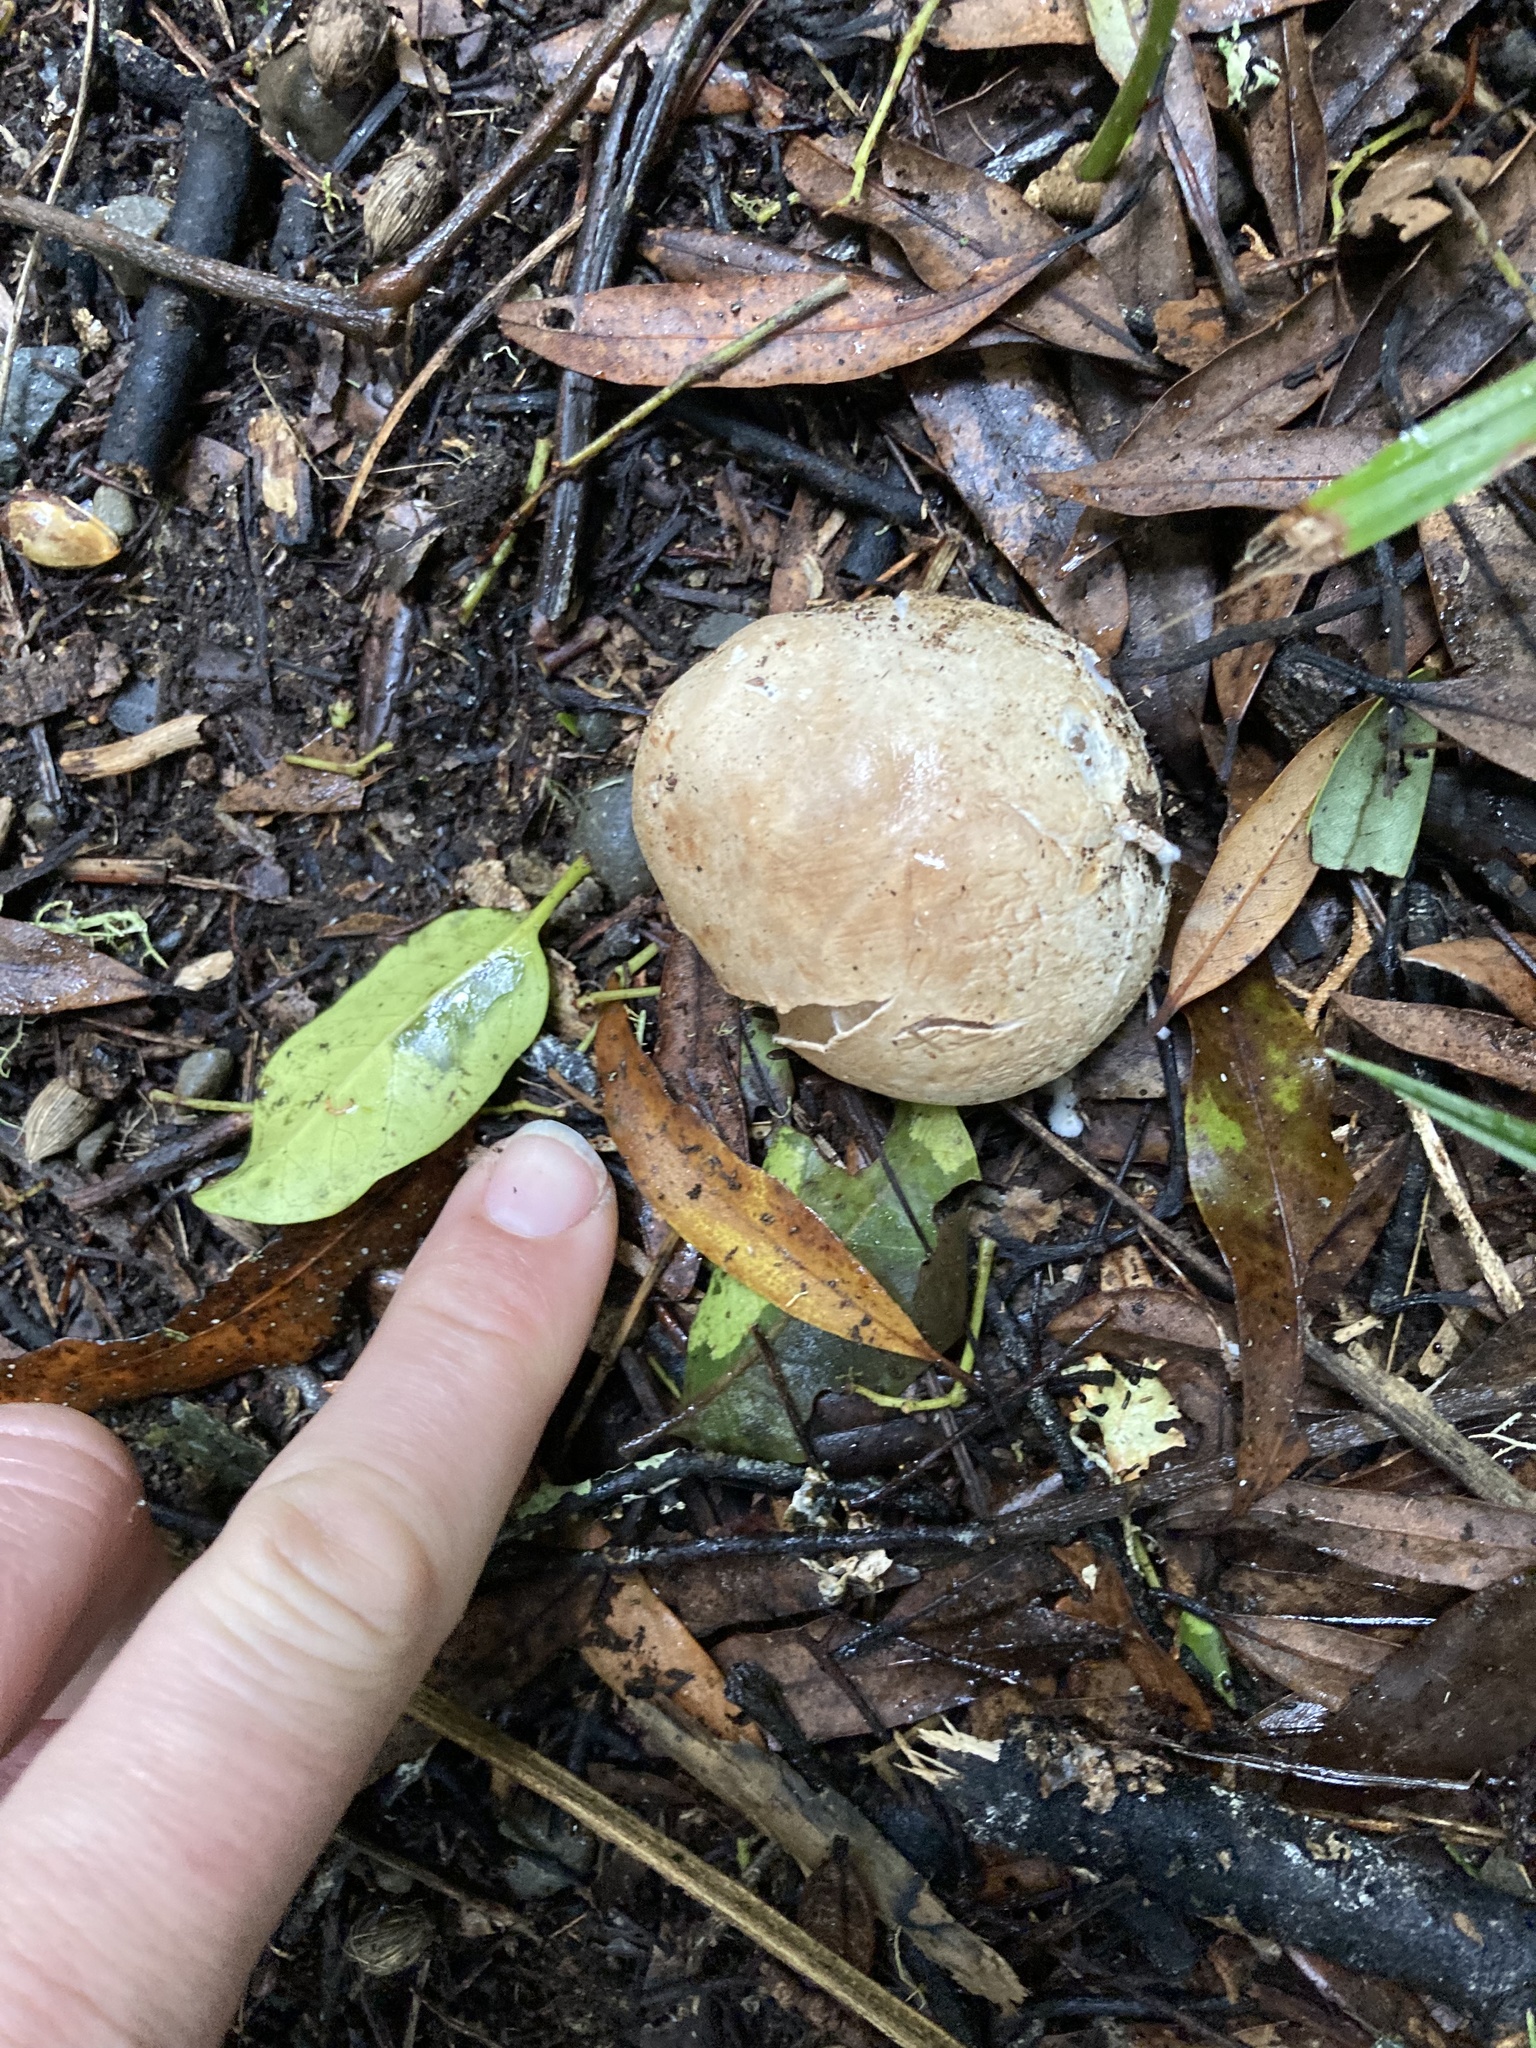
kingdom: Fungi
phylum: Basidiomycota
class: Agaricomycetes
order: Phallales
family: Phallaceae
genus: Ileodictyon
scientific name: Ileodictyon cibarium
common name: Basket fungus
